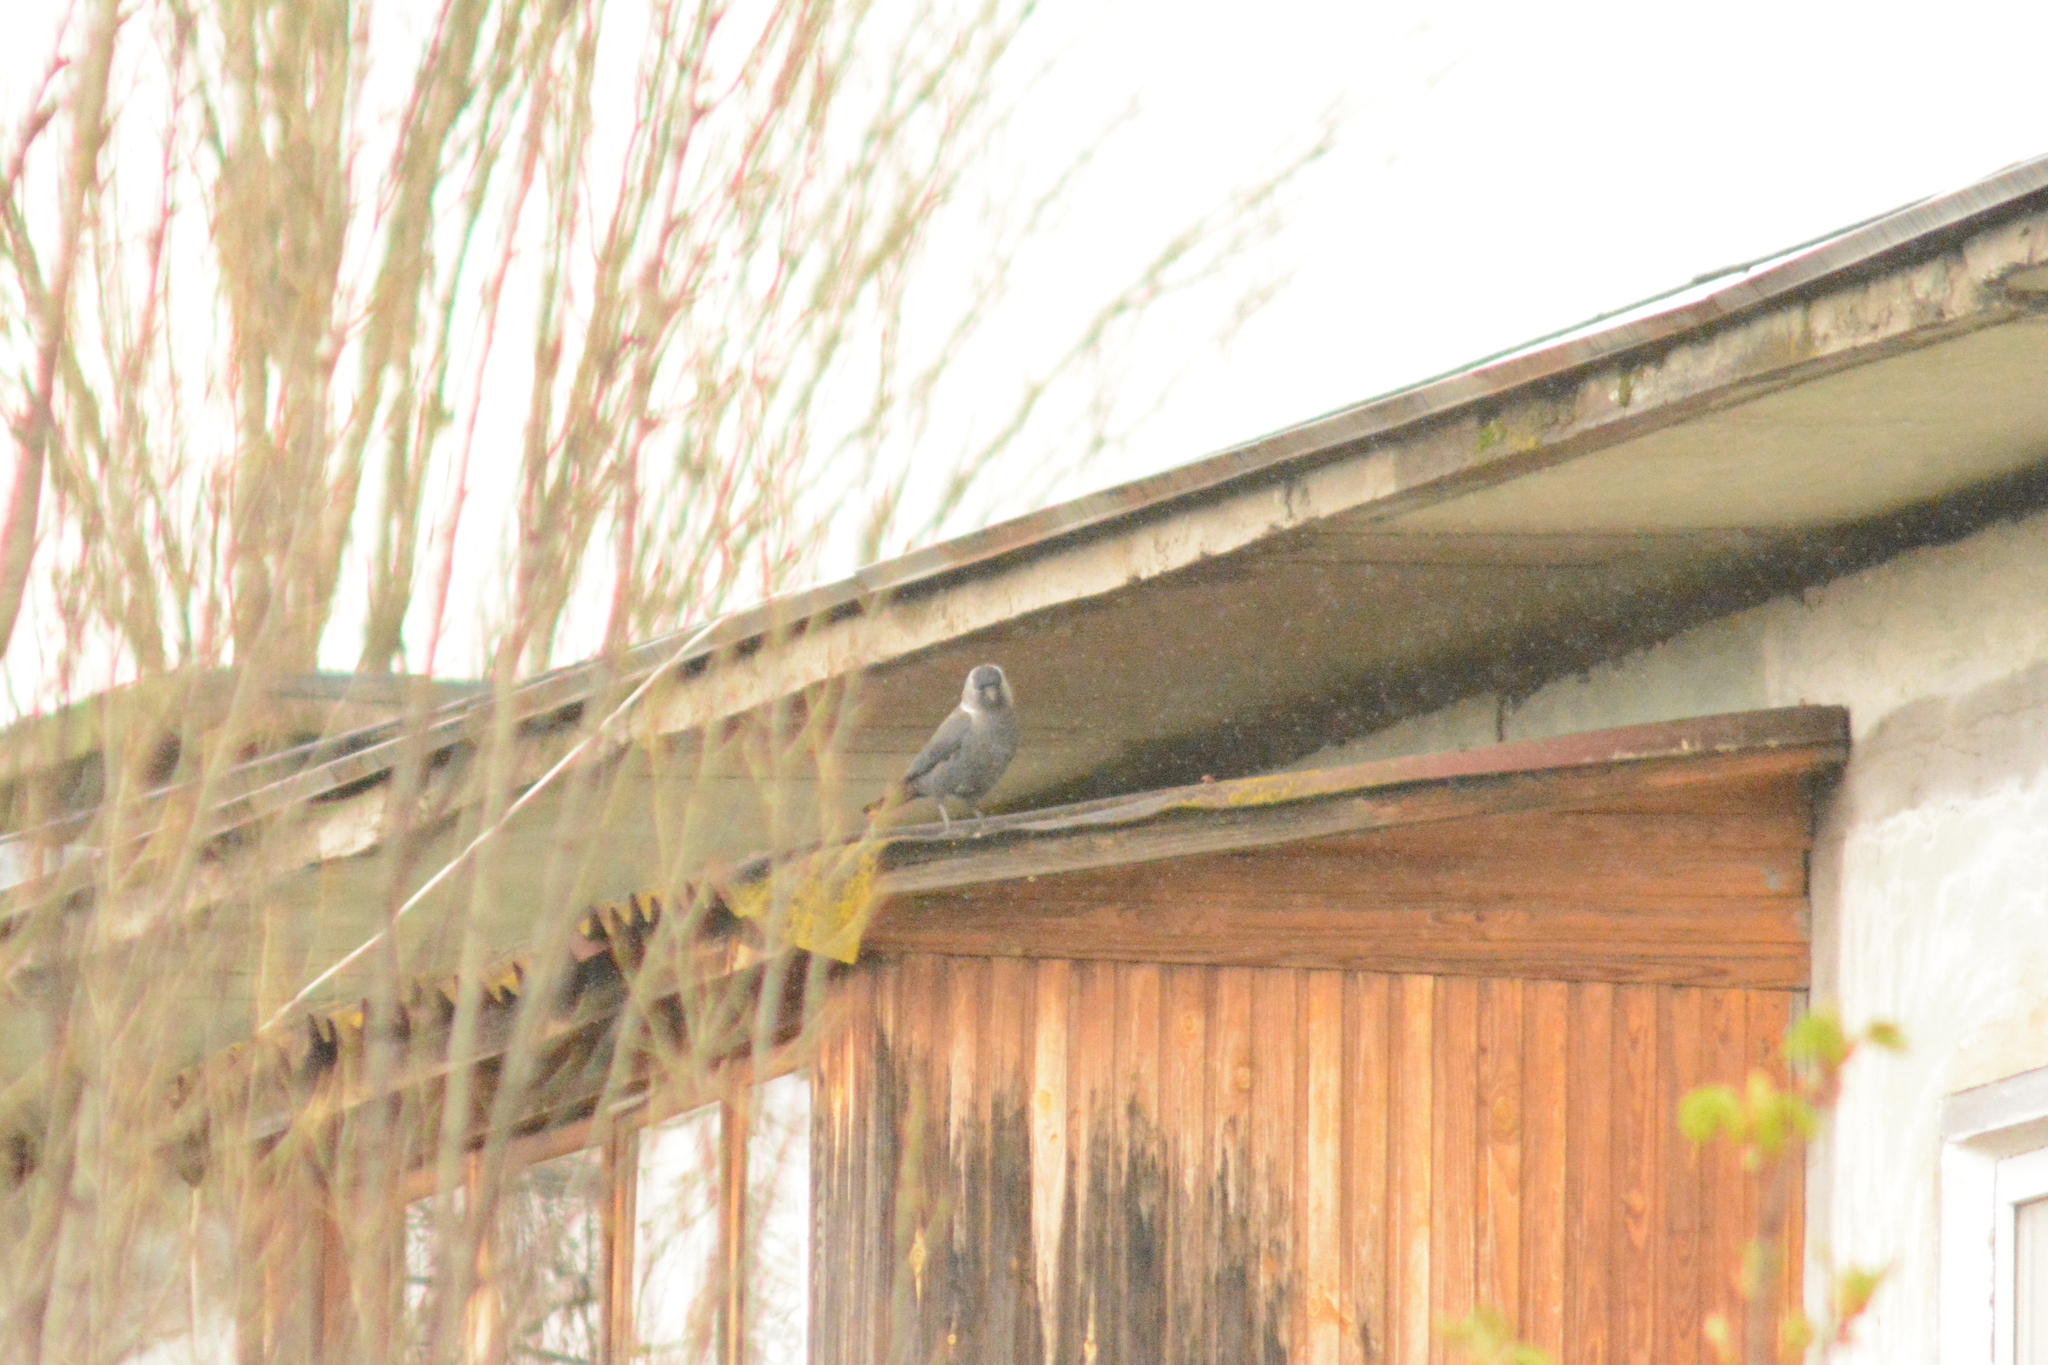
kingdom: Animalia
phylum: Chordata
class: Aves
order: Passeriformes
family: Corvidae
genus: Coloeus
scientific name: Coloeus monedula
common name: Western jackdaw
